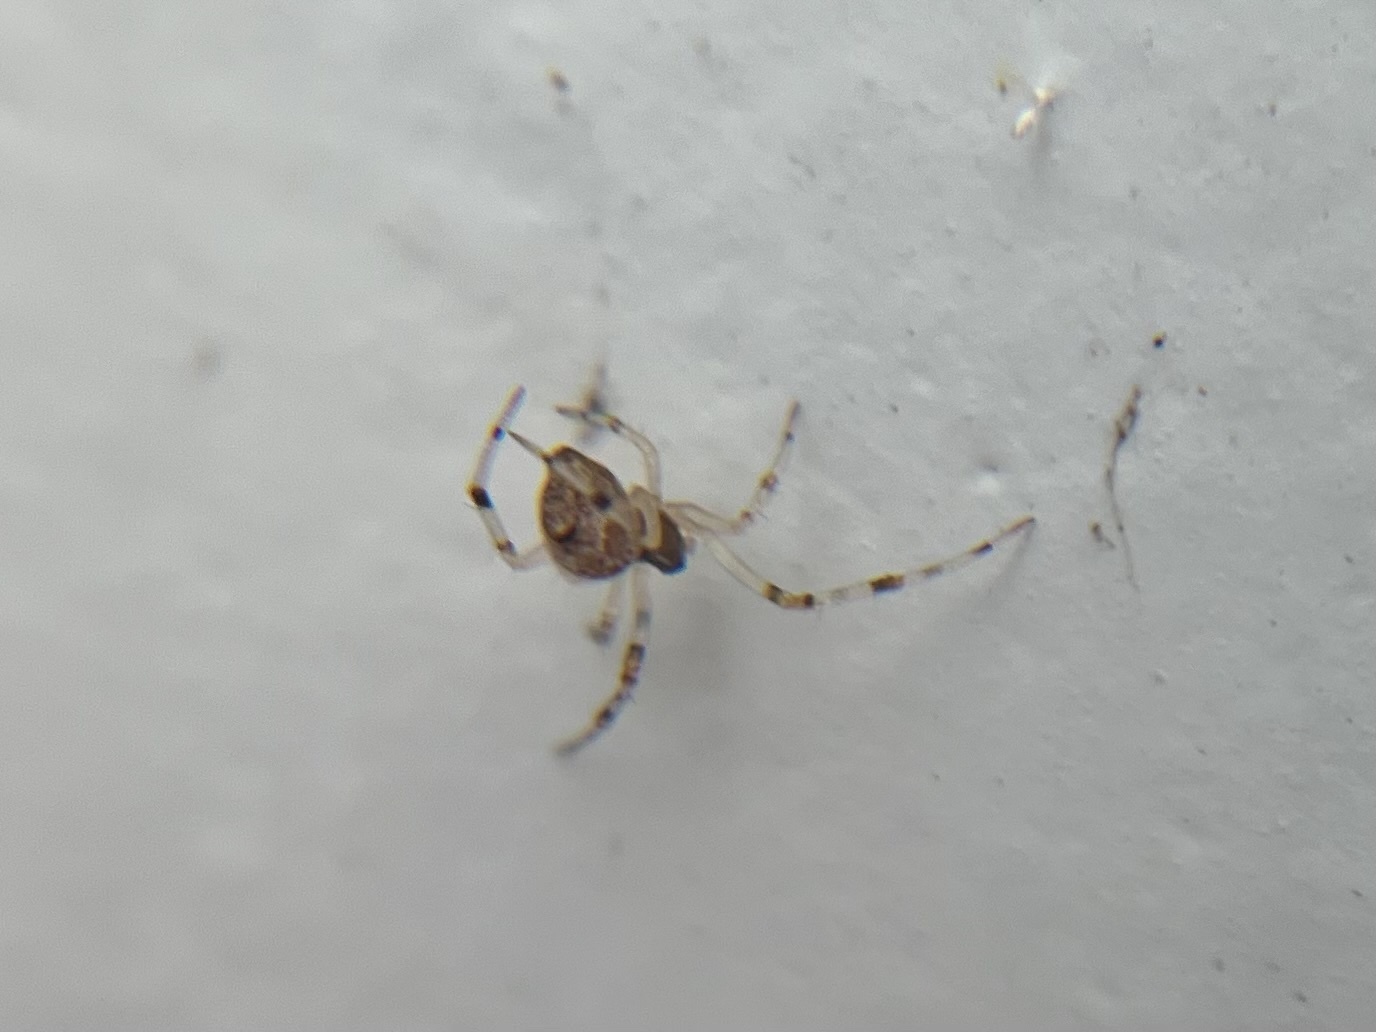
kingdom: Animalia
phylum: Arthropoda
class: Arachnida
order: Araneae
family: Theridiidae
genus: Parasteatoda
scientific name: Parasteatoda tepidariorum
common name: Common house spider
